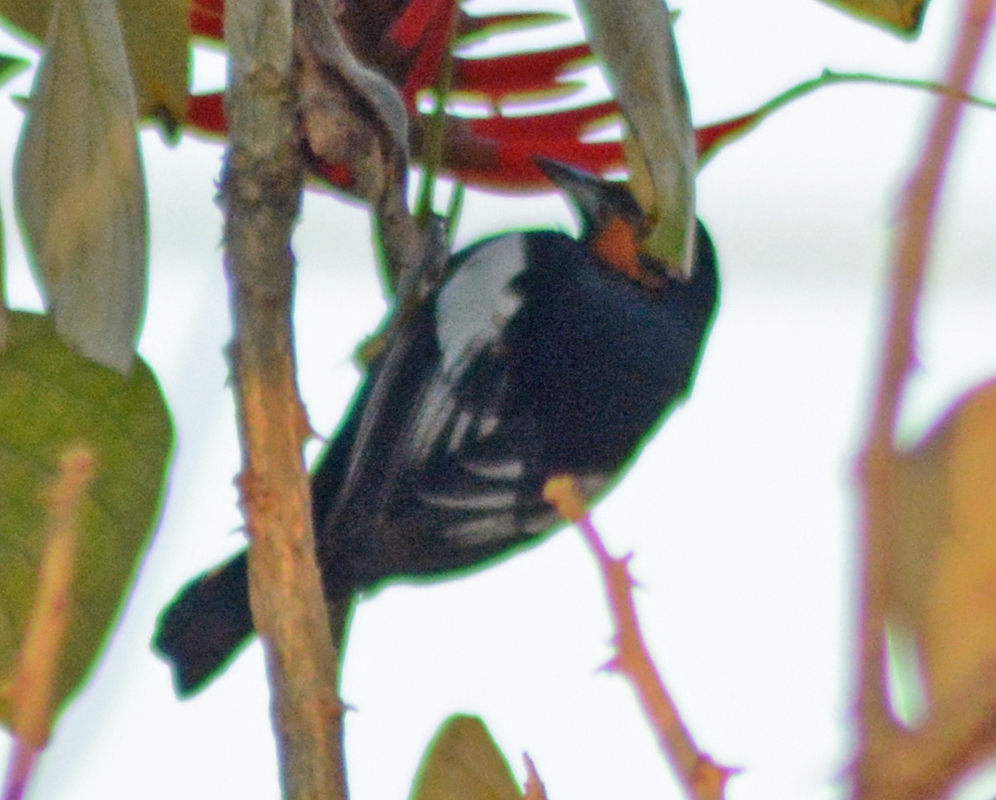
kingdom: Animalia
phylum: Chordata
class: Aves
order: Passeriformes
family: Icteridae
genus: Icterus
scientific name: Icterus abeillei
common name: Black-backed oriole
